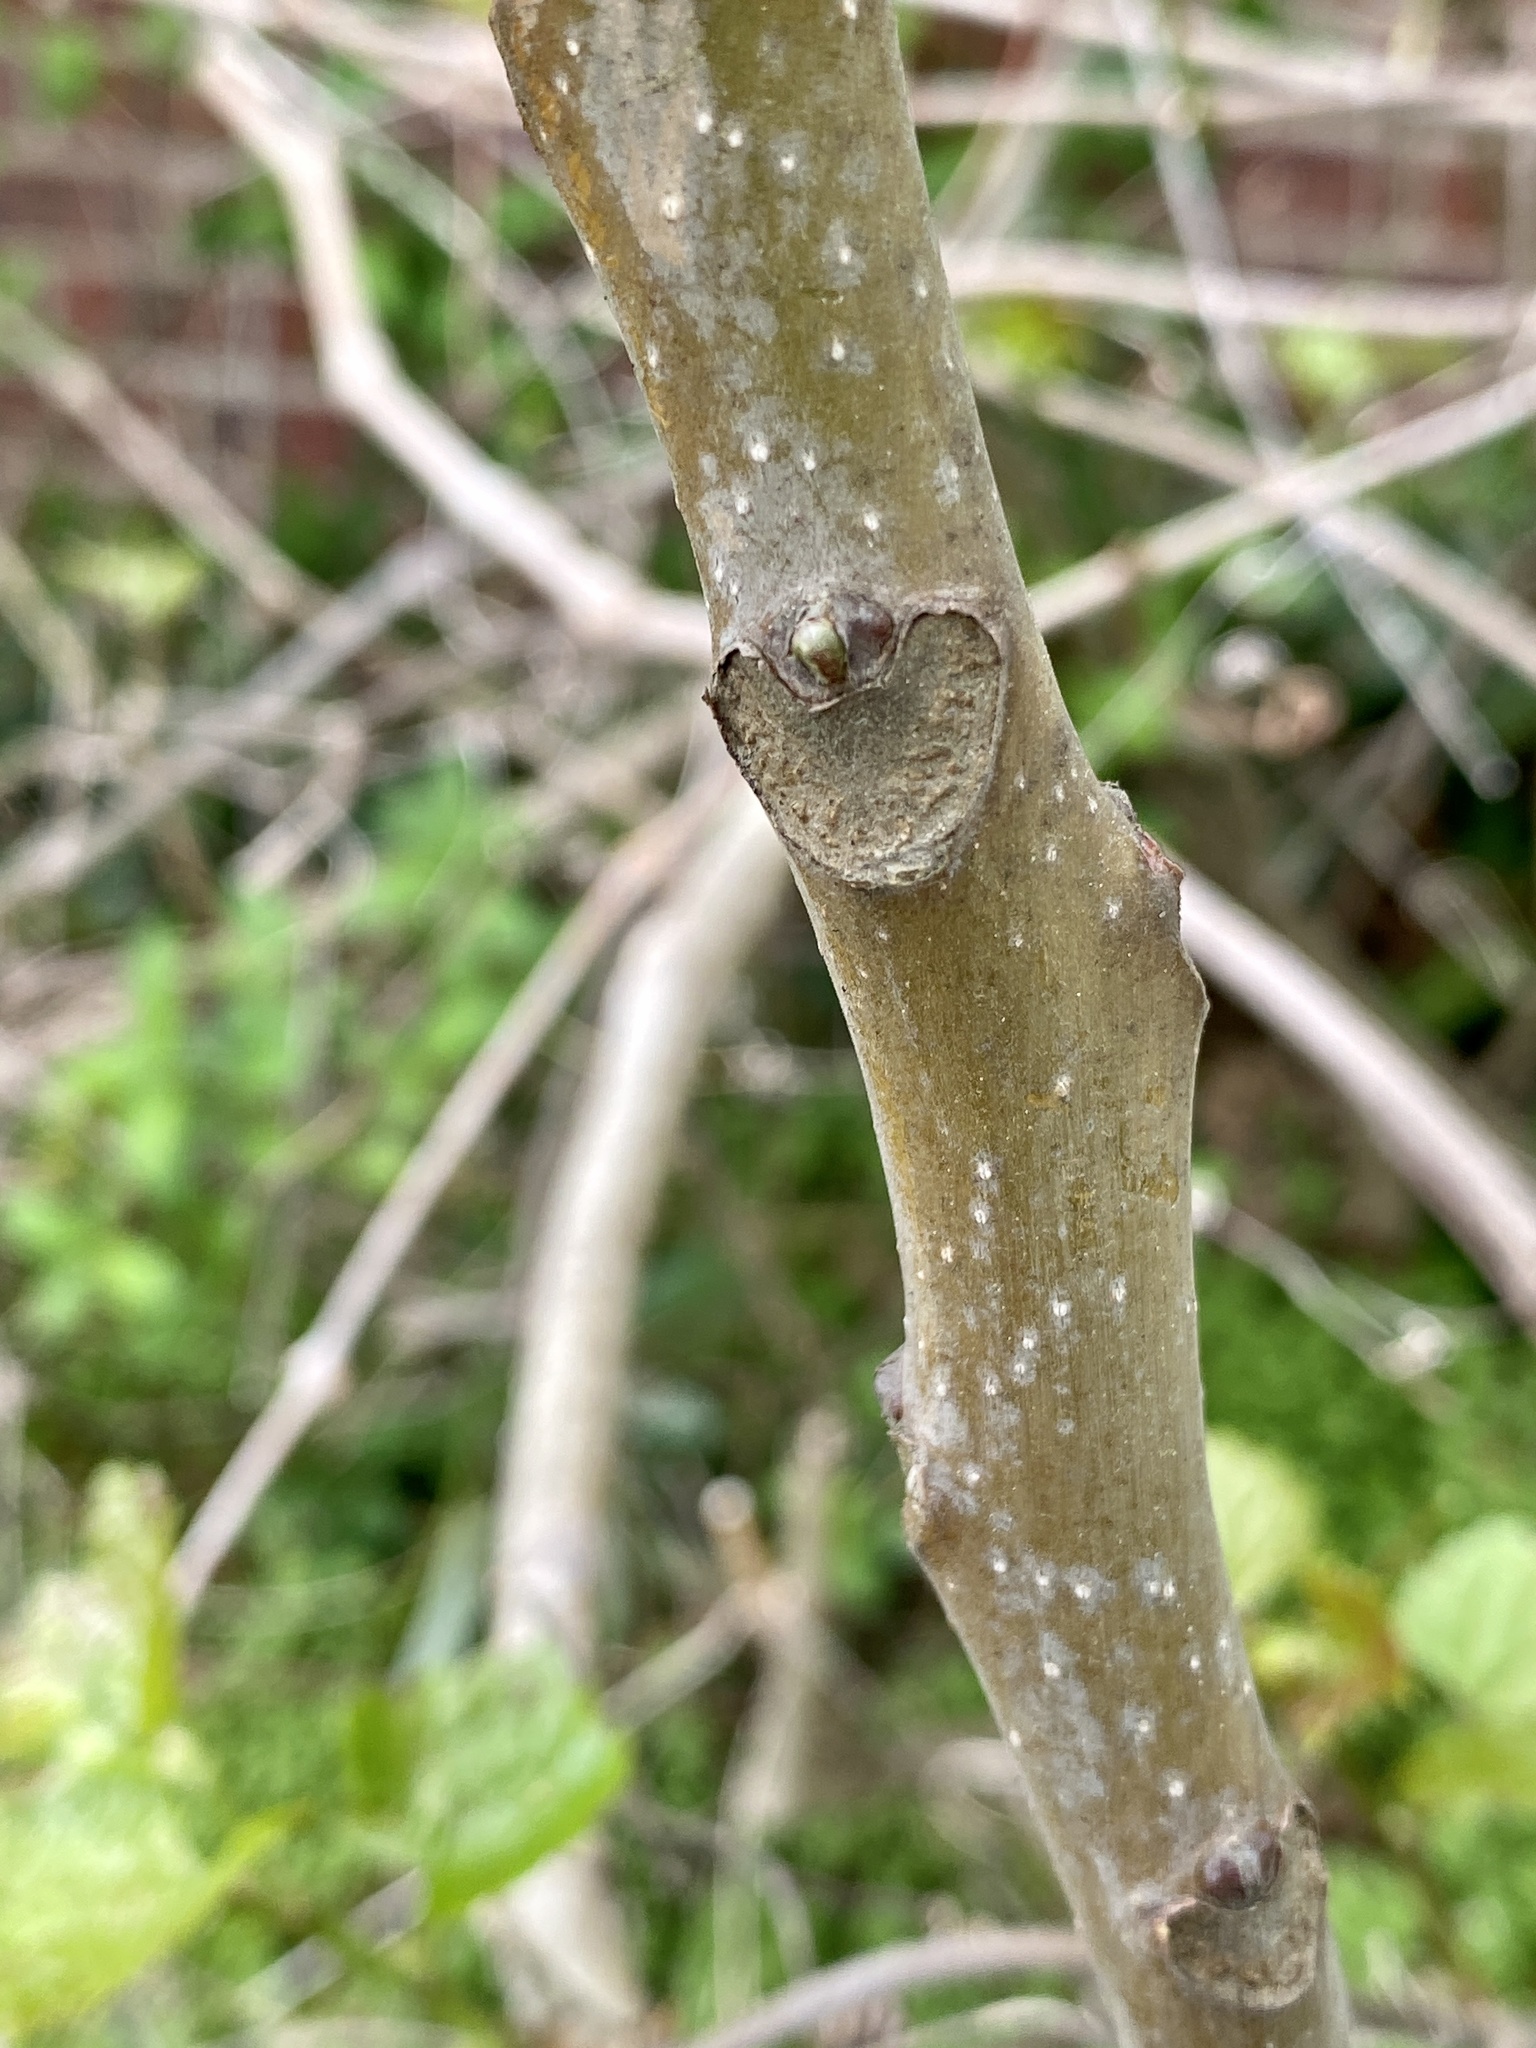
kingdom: Plantae
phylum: Tracheophyta
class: Magnoliopsida
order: Sapindales
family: Simaroubaceae
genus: Ailanthus
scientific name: Ailanthus altissima
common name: Tree-of-heaven
